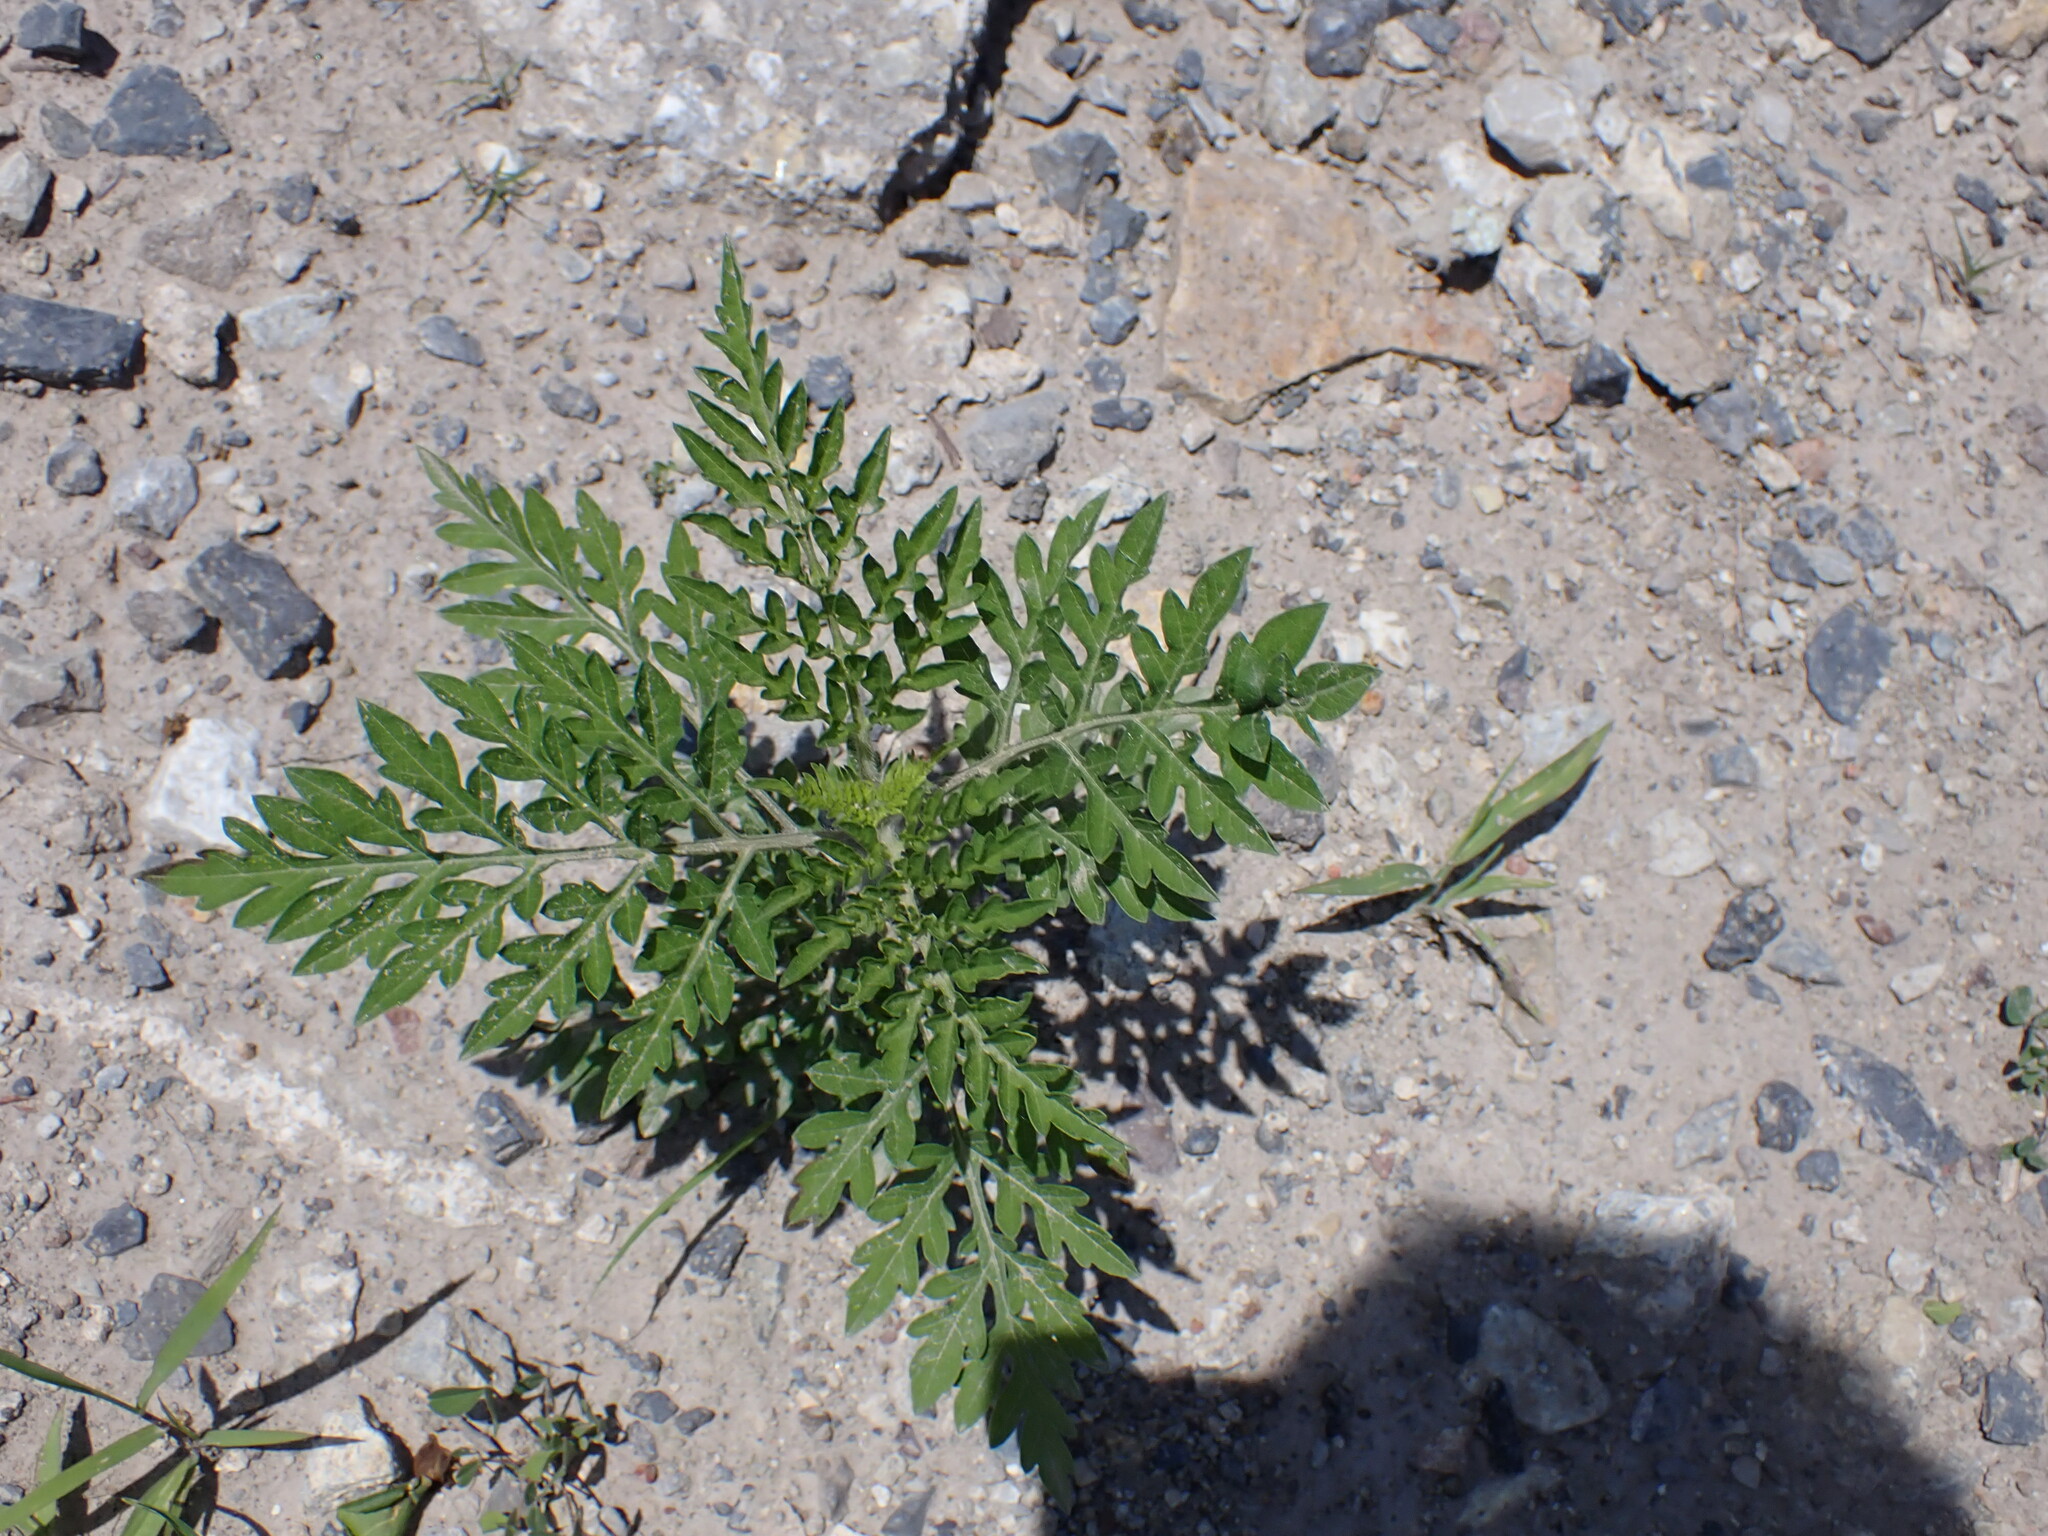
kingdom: Plantae
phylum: Tracheophyta
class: Magnoliopsida
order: Asterales
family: Asteraceae
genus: Ambrosia
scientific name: Ambrosia artemisiifolia
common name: Annual ragweed
